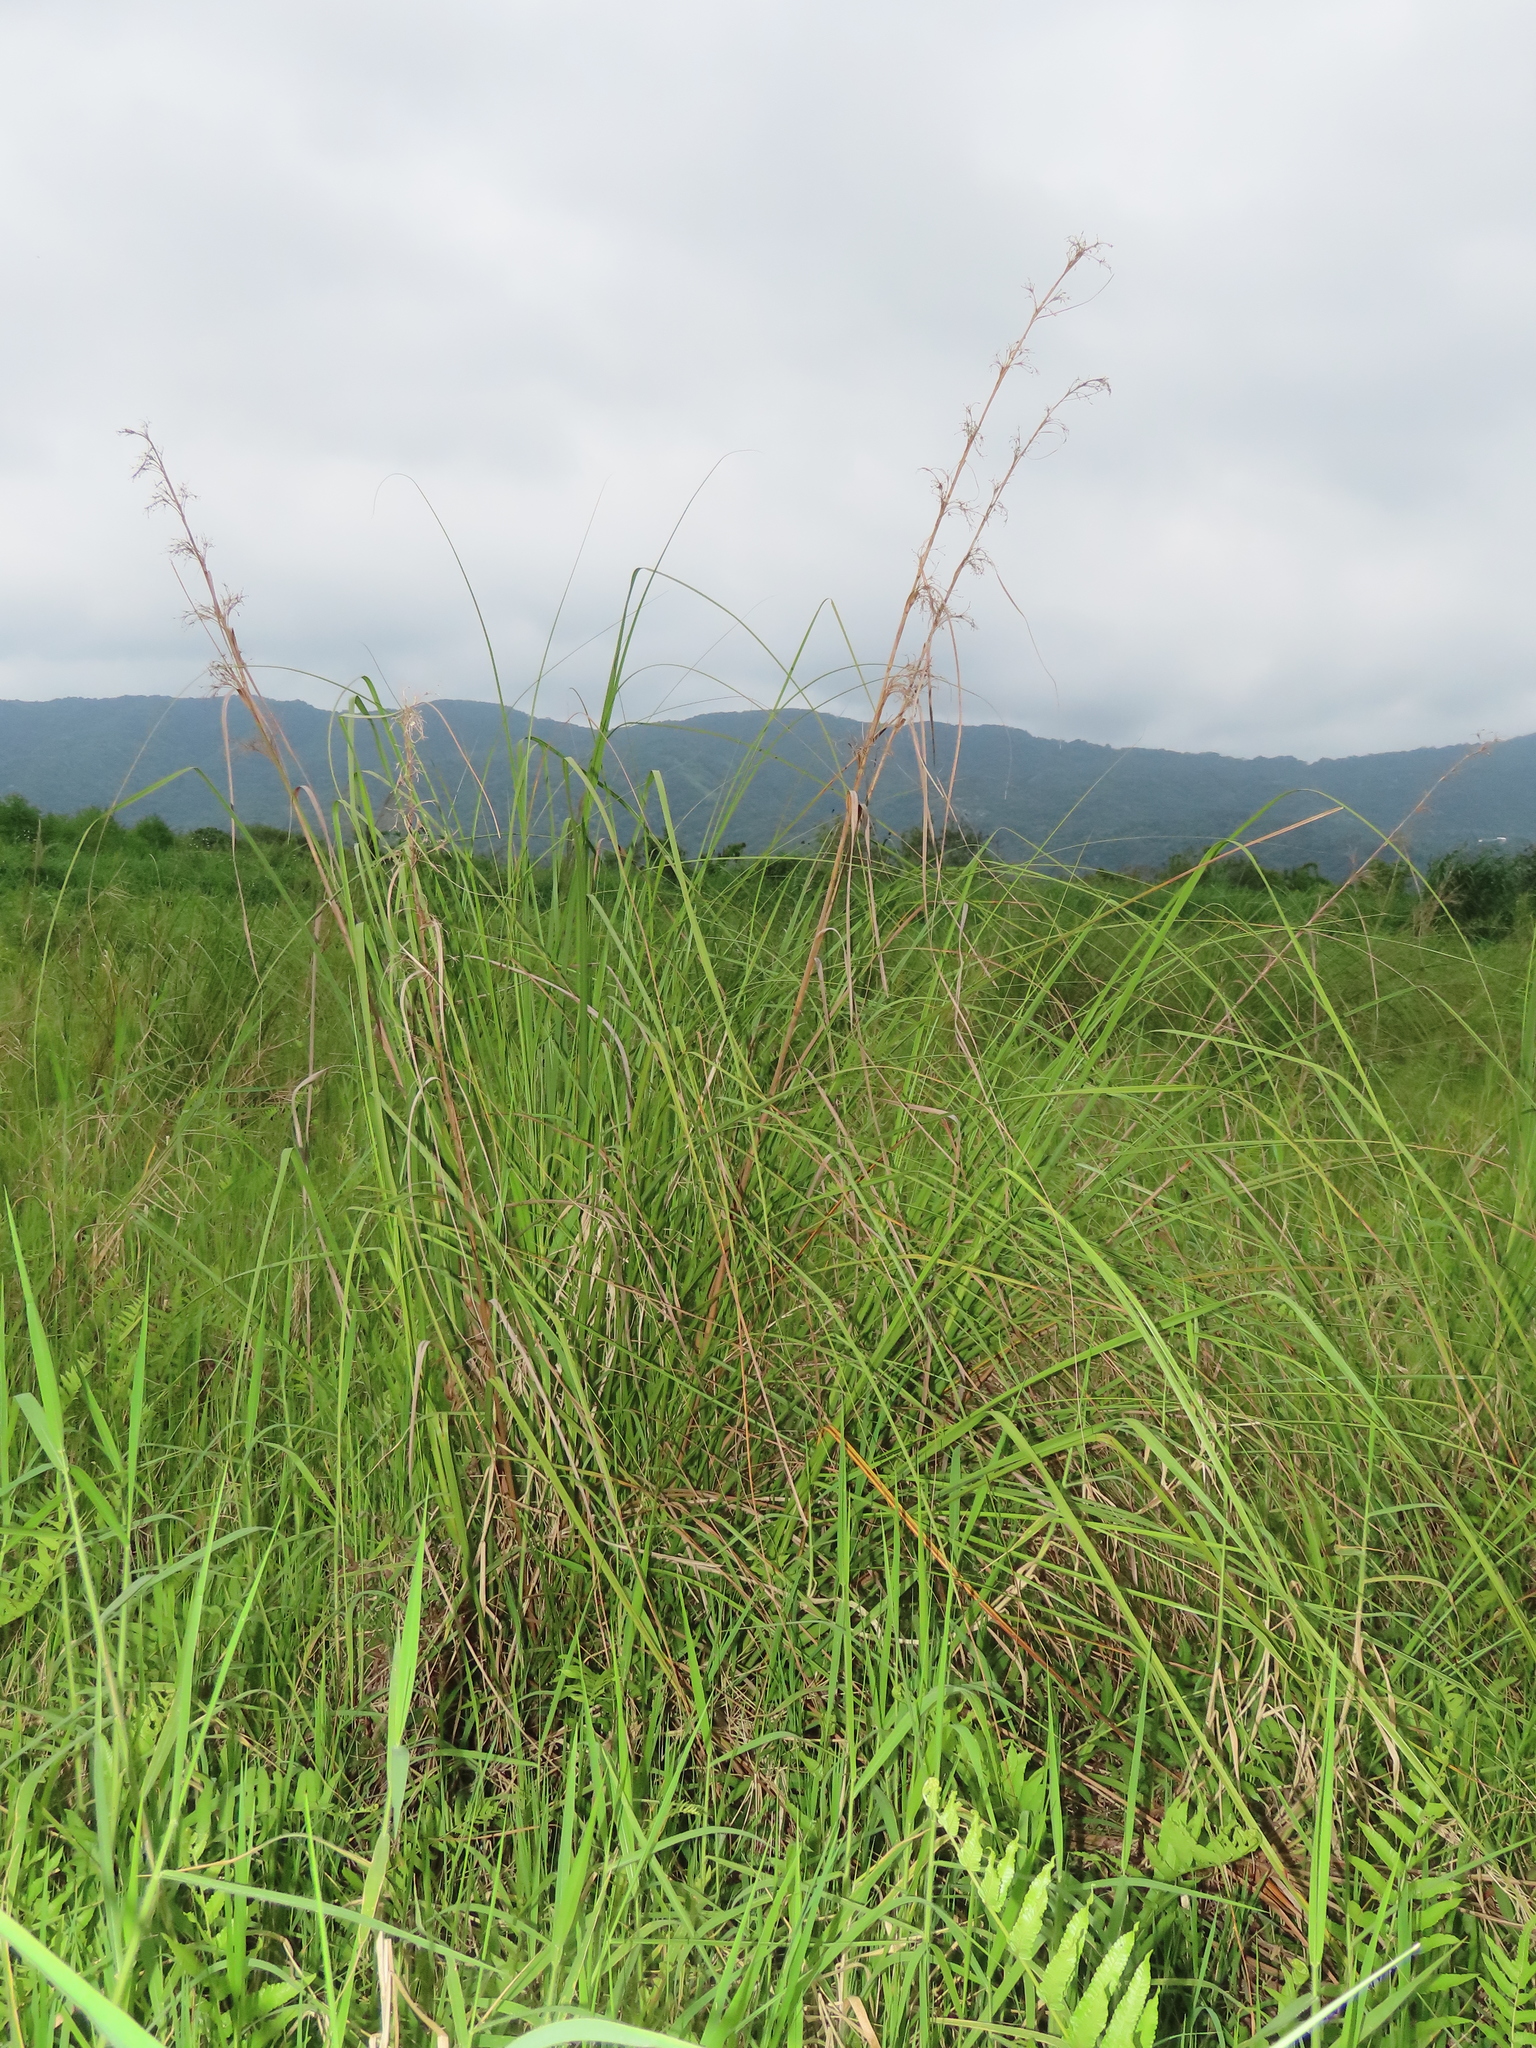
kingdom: Plantae
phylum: Tracheophyta
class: Liliopsida
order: Poales
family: Cyperaceae
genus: Cladium
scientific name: Cladium mariscus
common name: Great fen-sedge
